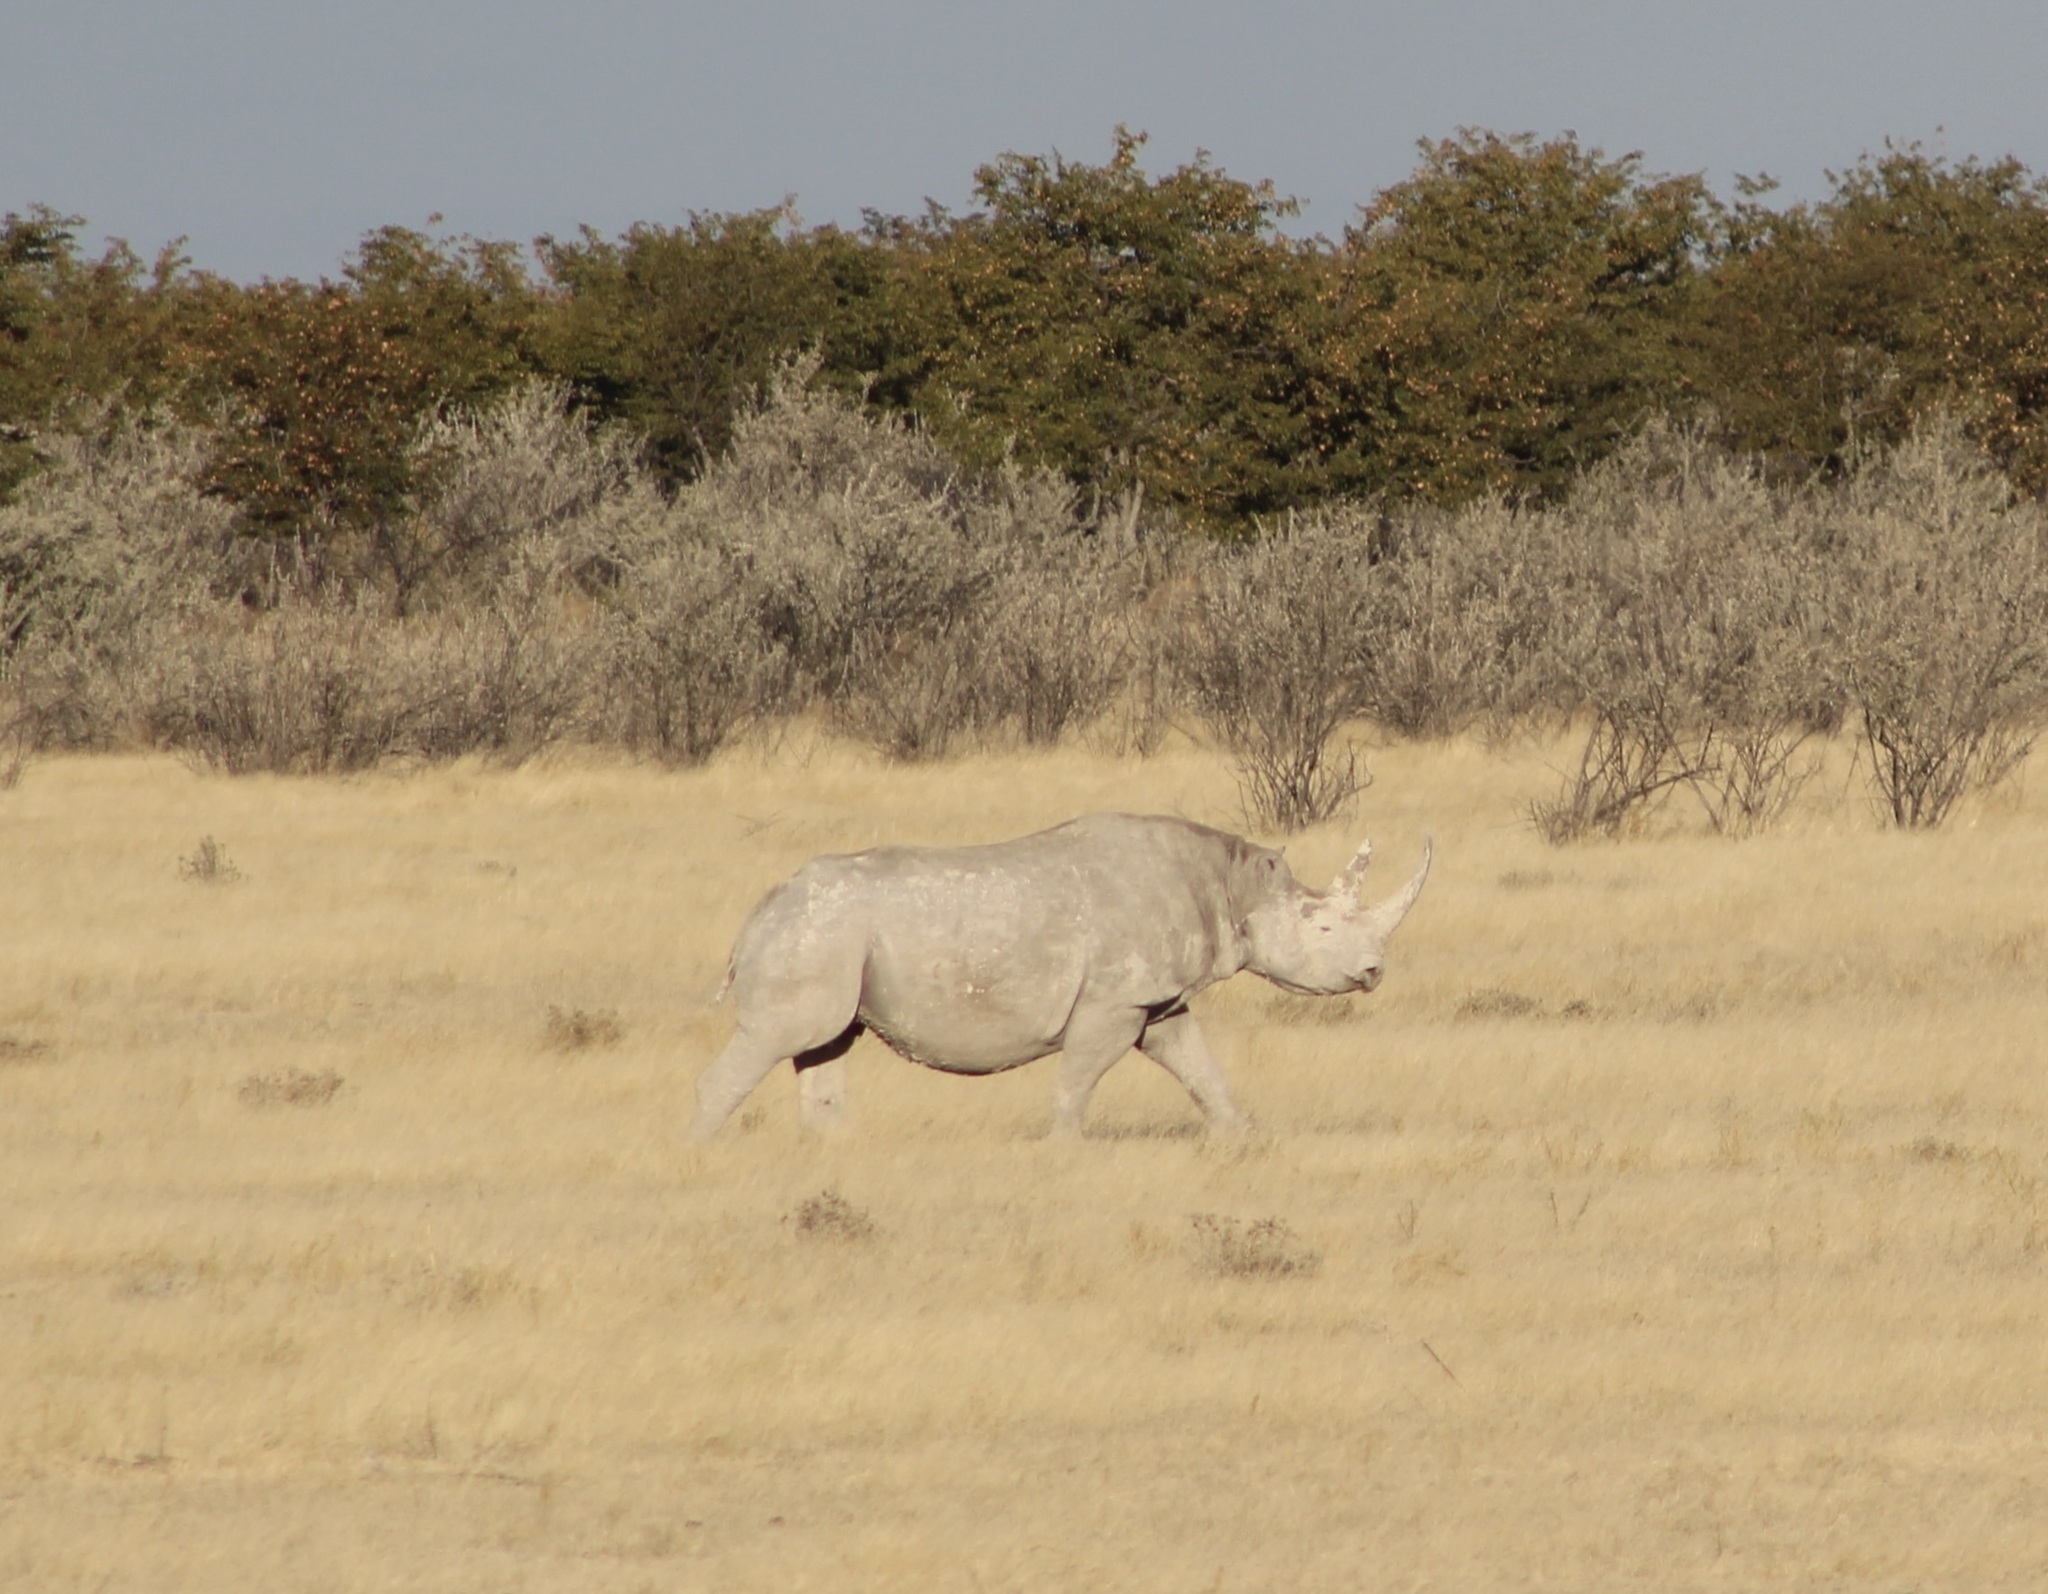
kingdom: Animalia
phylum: Chordata
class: Mammalia
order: Perissodactyla
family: Rhinocerotidae
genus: Diceros
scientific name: Diceros bicornis
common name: Black rhinoceros
